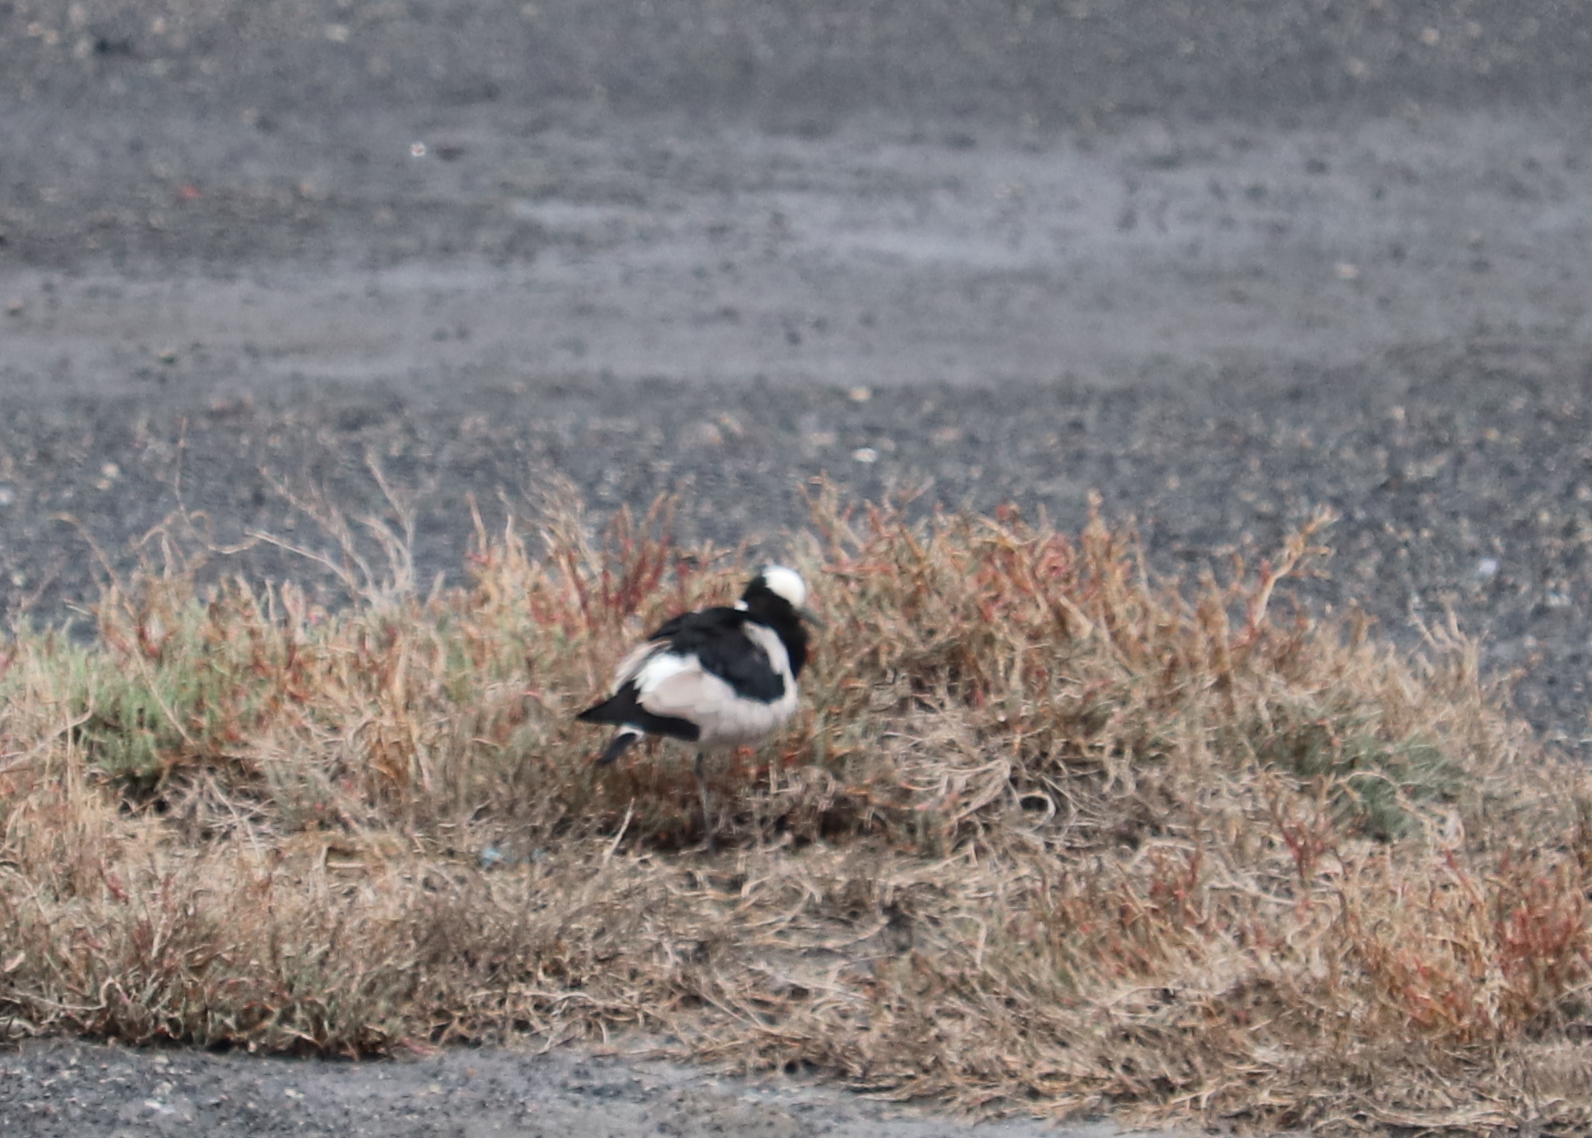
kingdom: Animalia
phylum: Chordata
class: Aves
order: Charadriiformes
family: Charadriidae
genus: Vanellus
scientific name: Vanellus armatus
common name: Blacksmith lapwing
